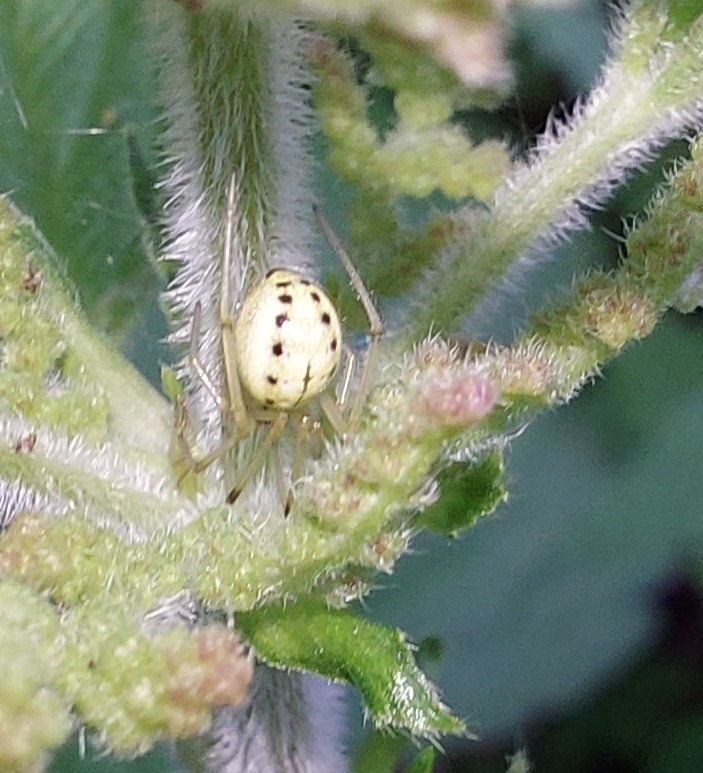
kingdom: Animalia
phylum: Arthropoda
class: Arachnida
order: Araneae
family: Theridiidae
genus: Enoplognatha
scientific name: Enoplognatha ovata
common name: Common candy-striped spider
